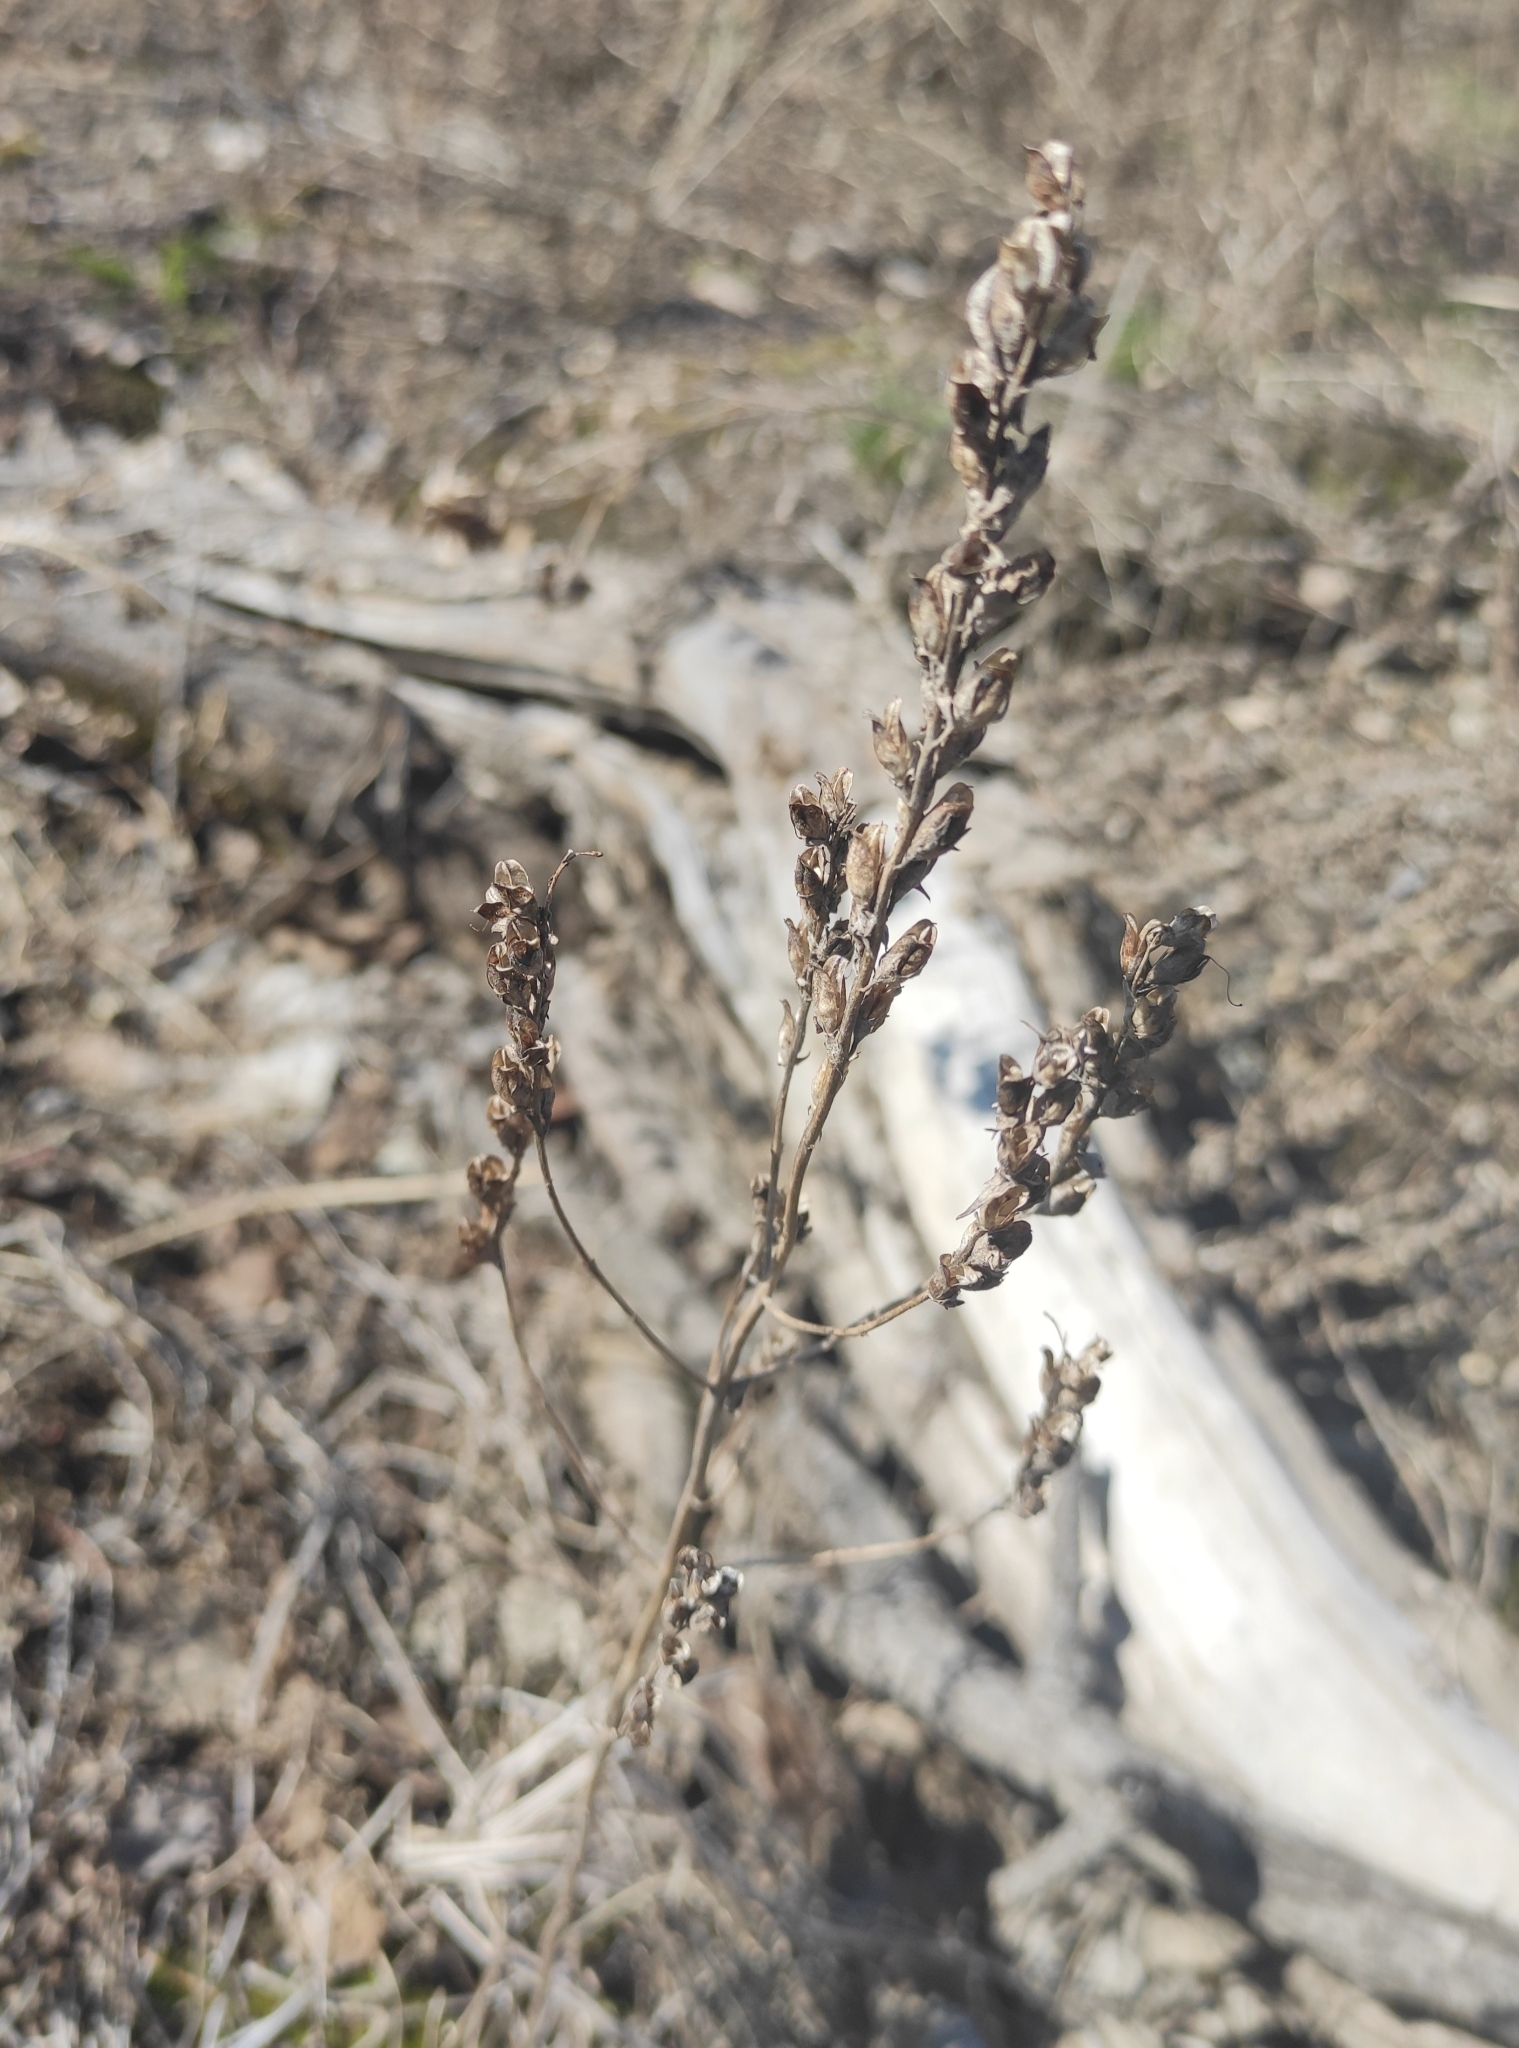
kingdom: Plantae
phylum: Tracheophyta
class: Magnoliopsida
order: Lamiales
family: Orobanchaceae
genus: Odontites
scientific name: Odontites vulgaris
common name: Broomrape
